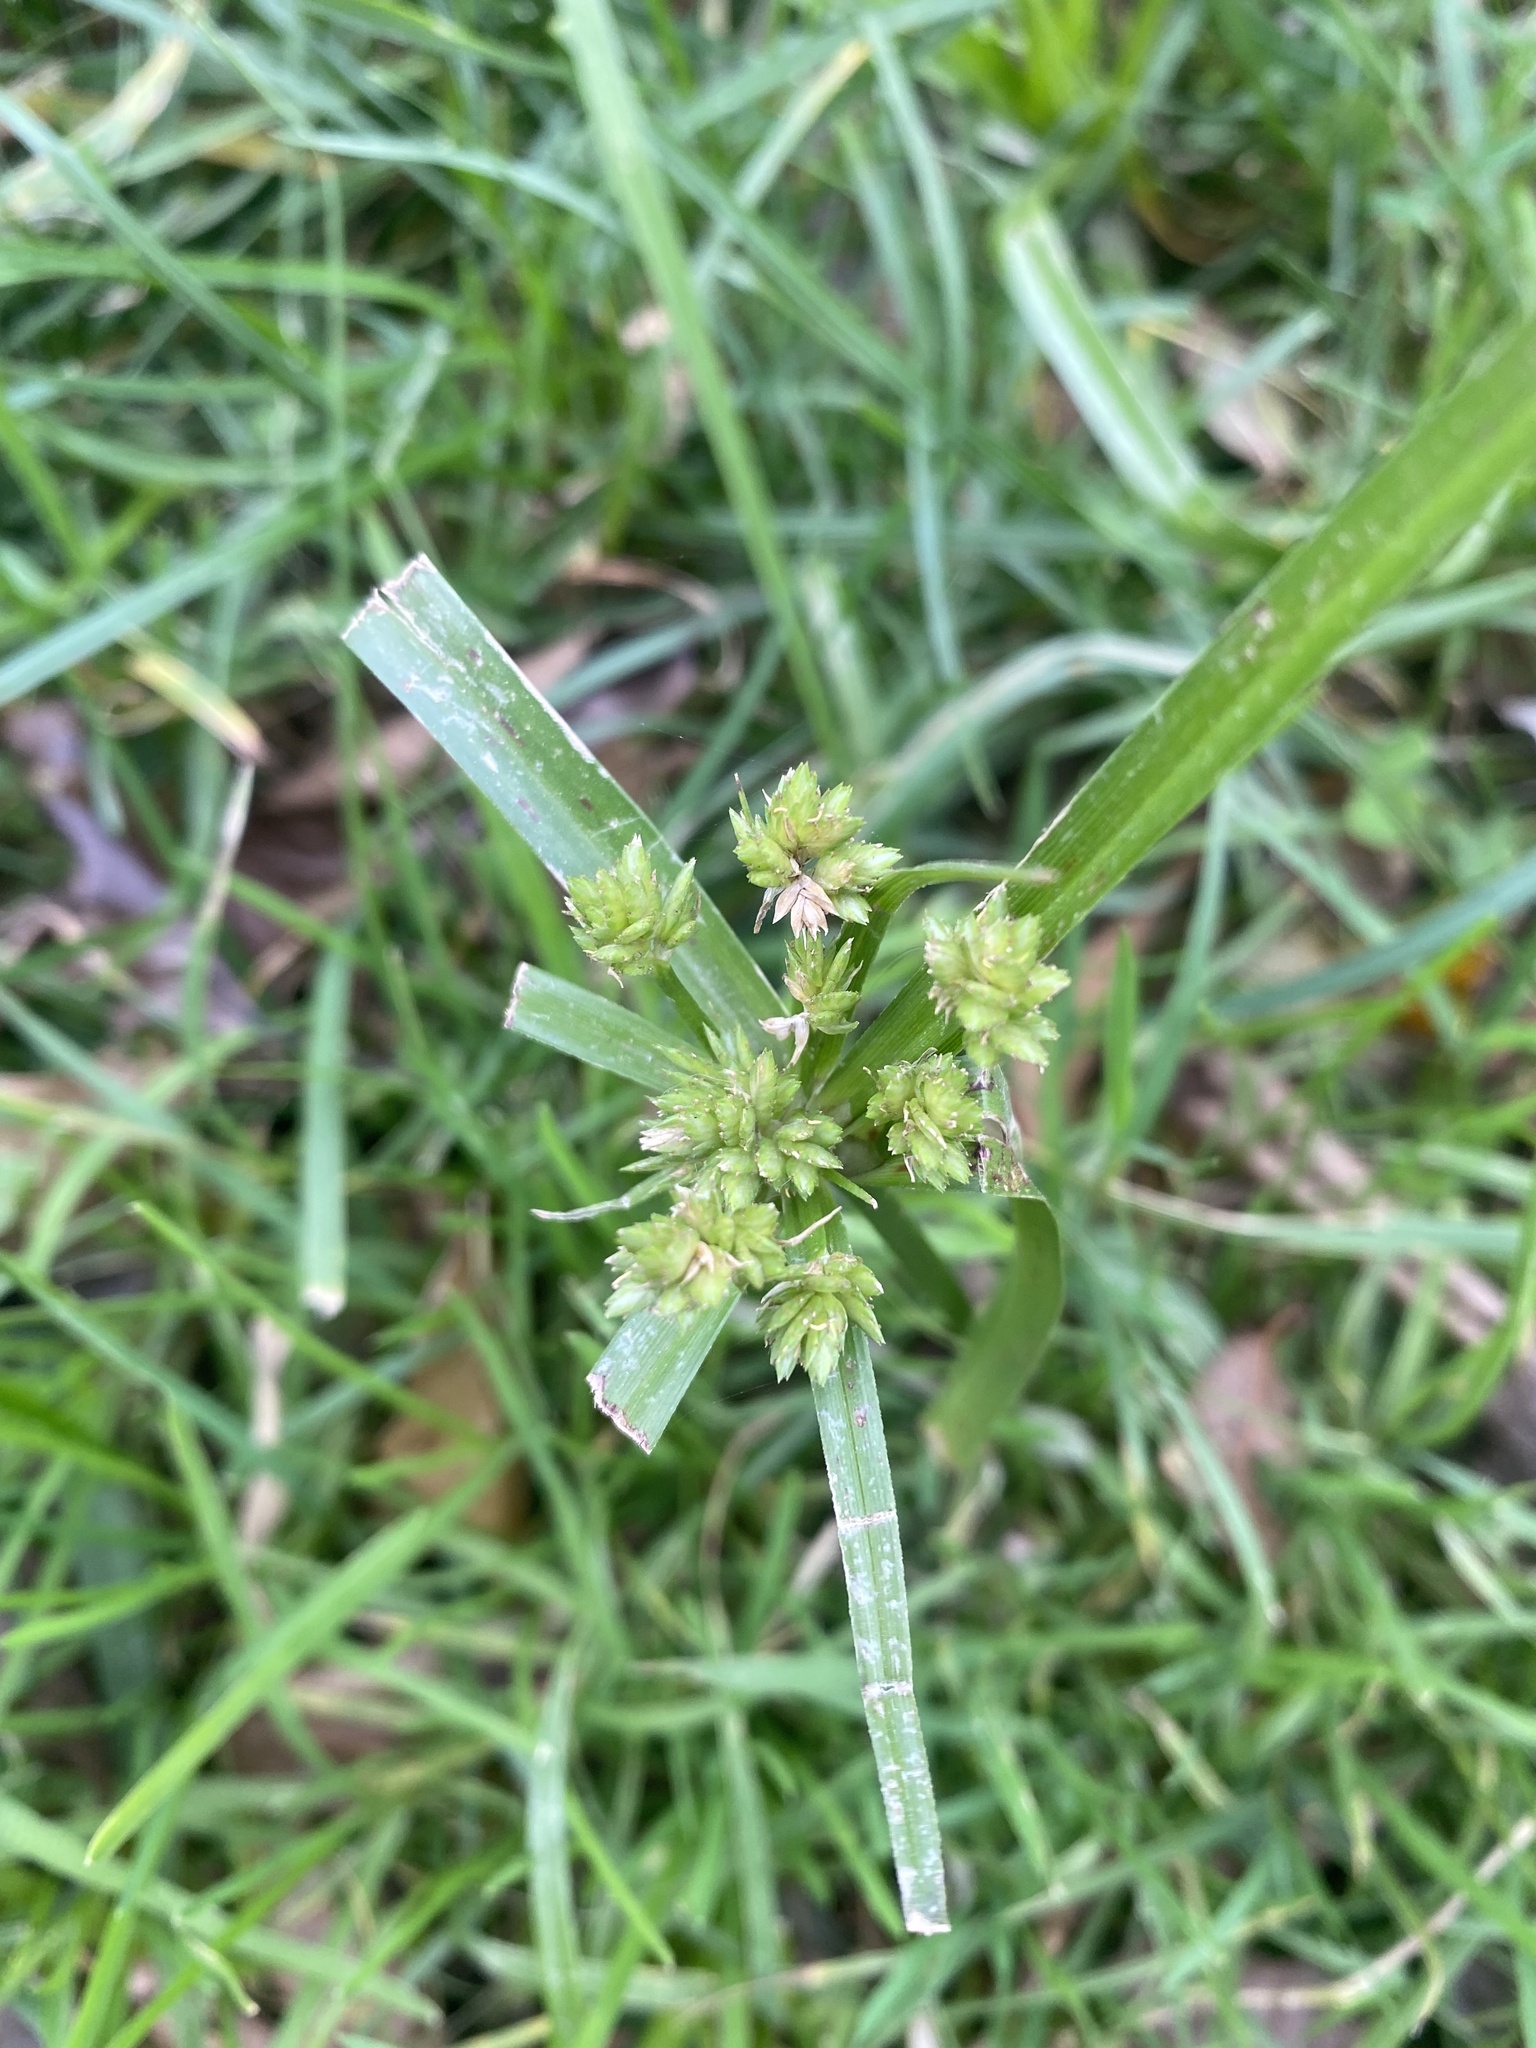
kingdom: Plantae
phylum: Tracheophyta
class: Liliopsida
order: Poales
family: Cyperaceae
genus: Cyperus
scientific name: Cyperus eragrostis
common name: Tall flatsedge
